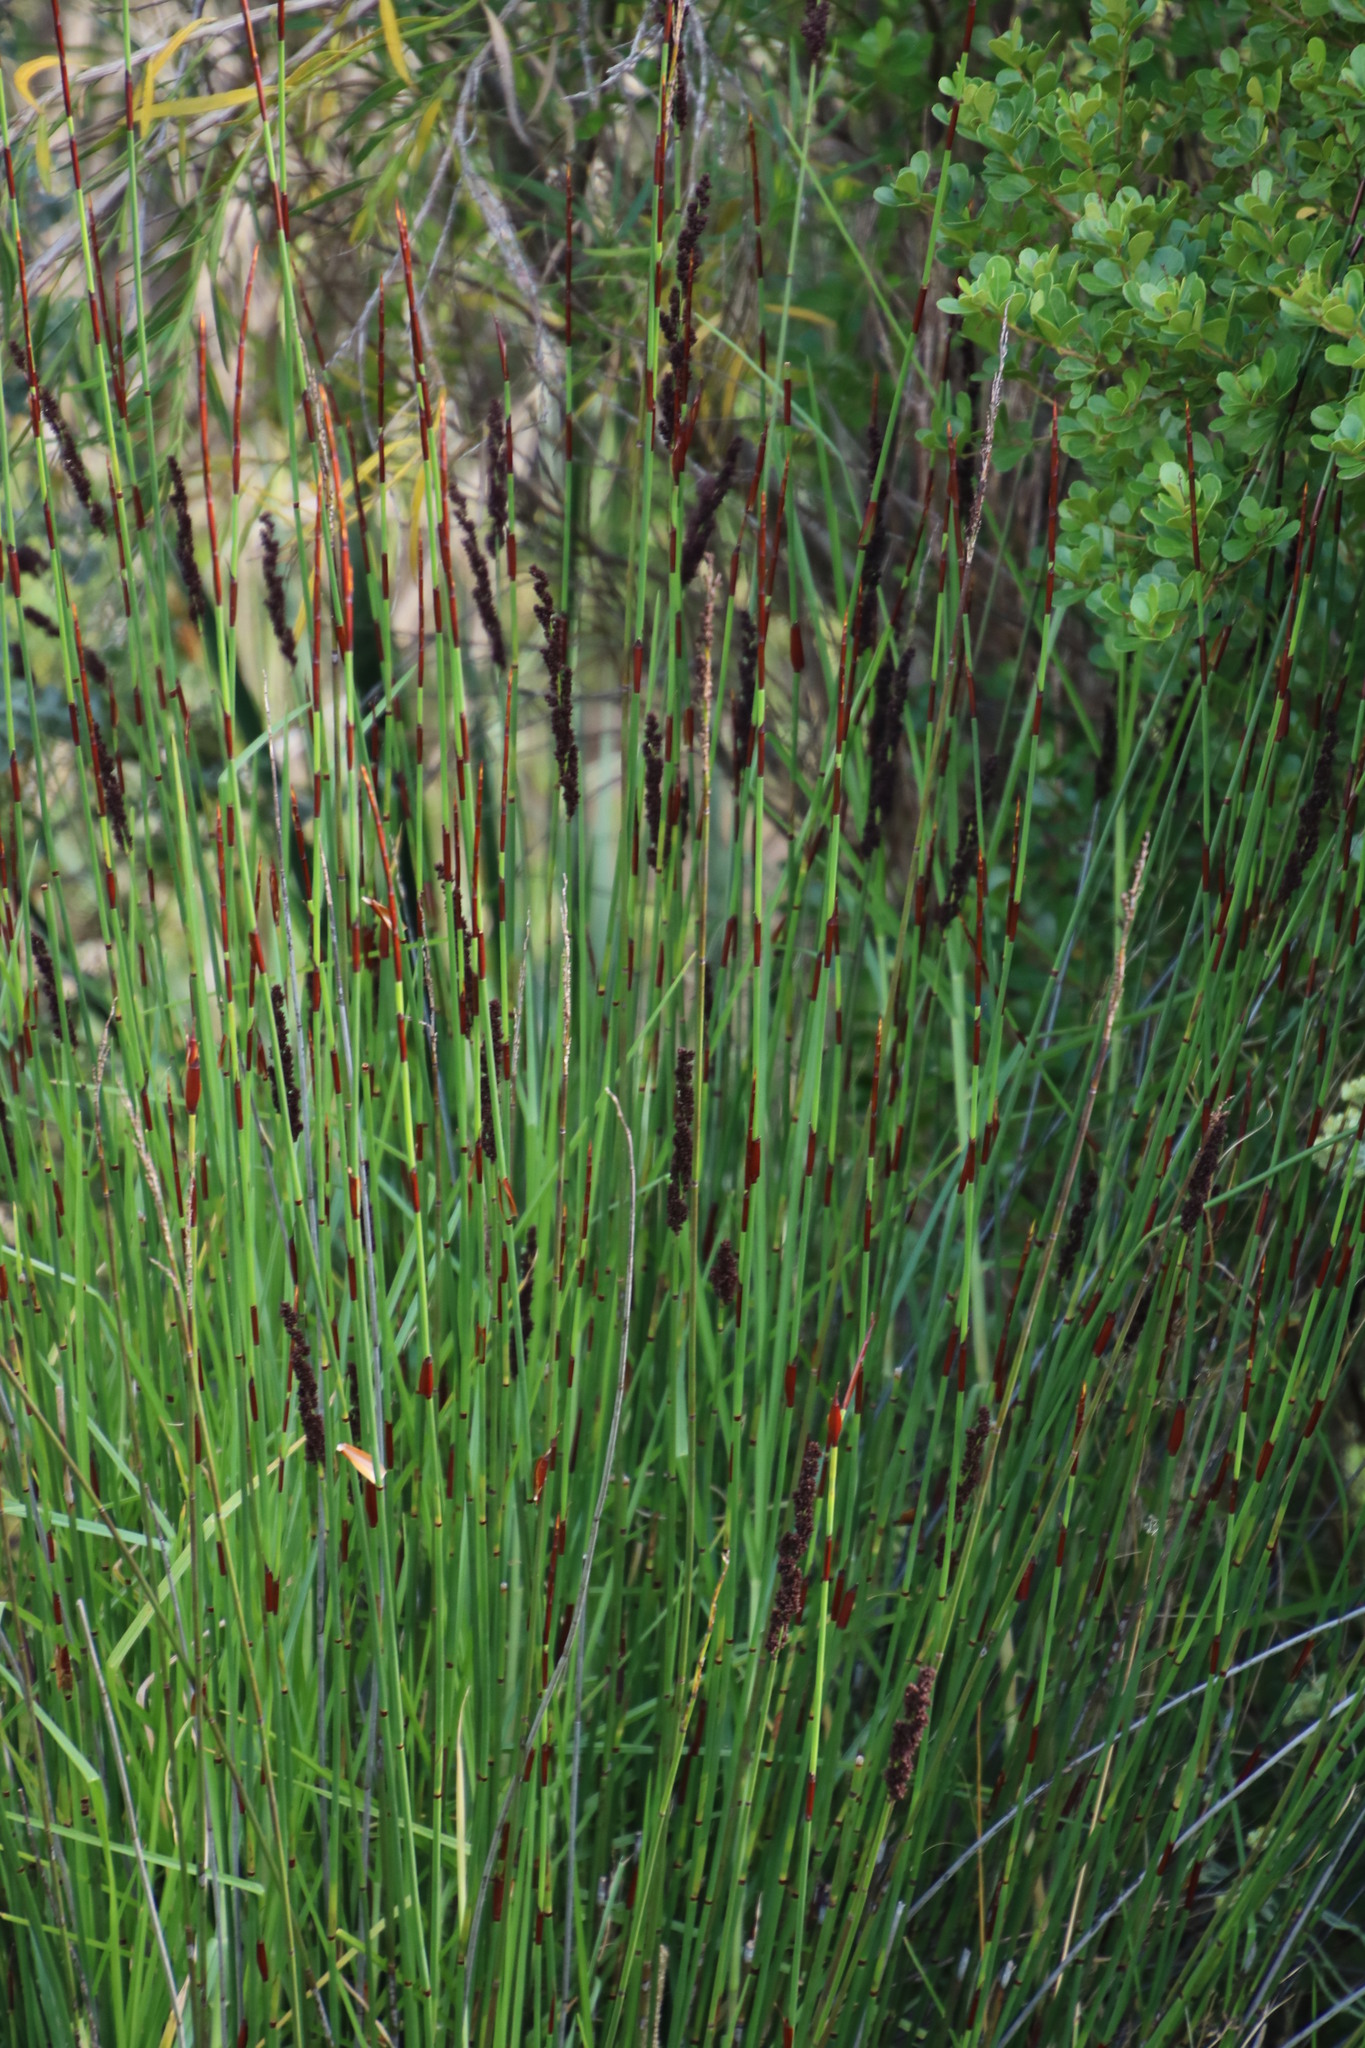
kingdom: Plantae
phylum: Tracheophyta
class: Liliopsida
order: Poales
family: Restionaceae
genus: Elegia
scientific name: Elegia tectorum
